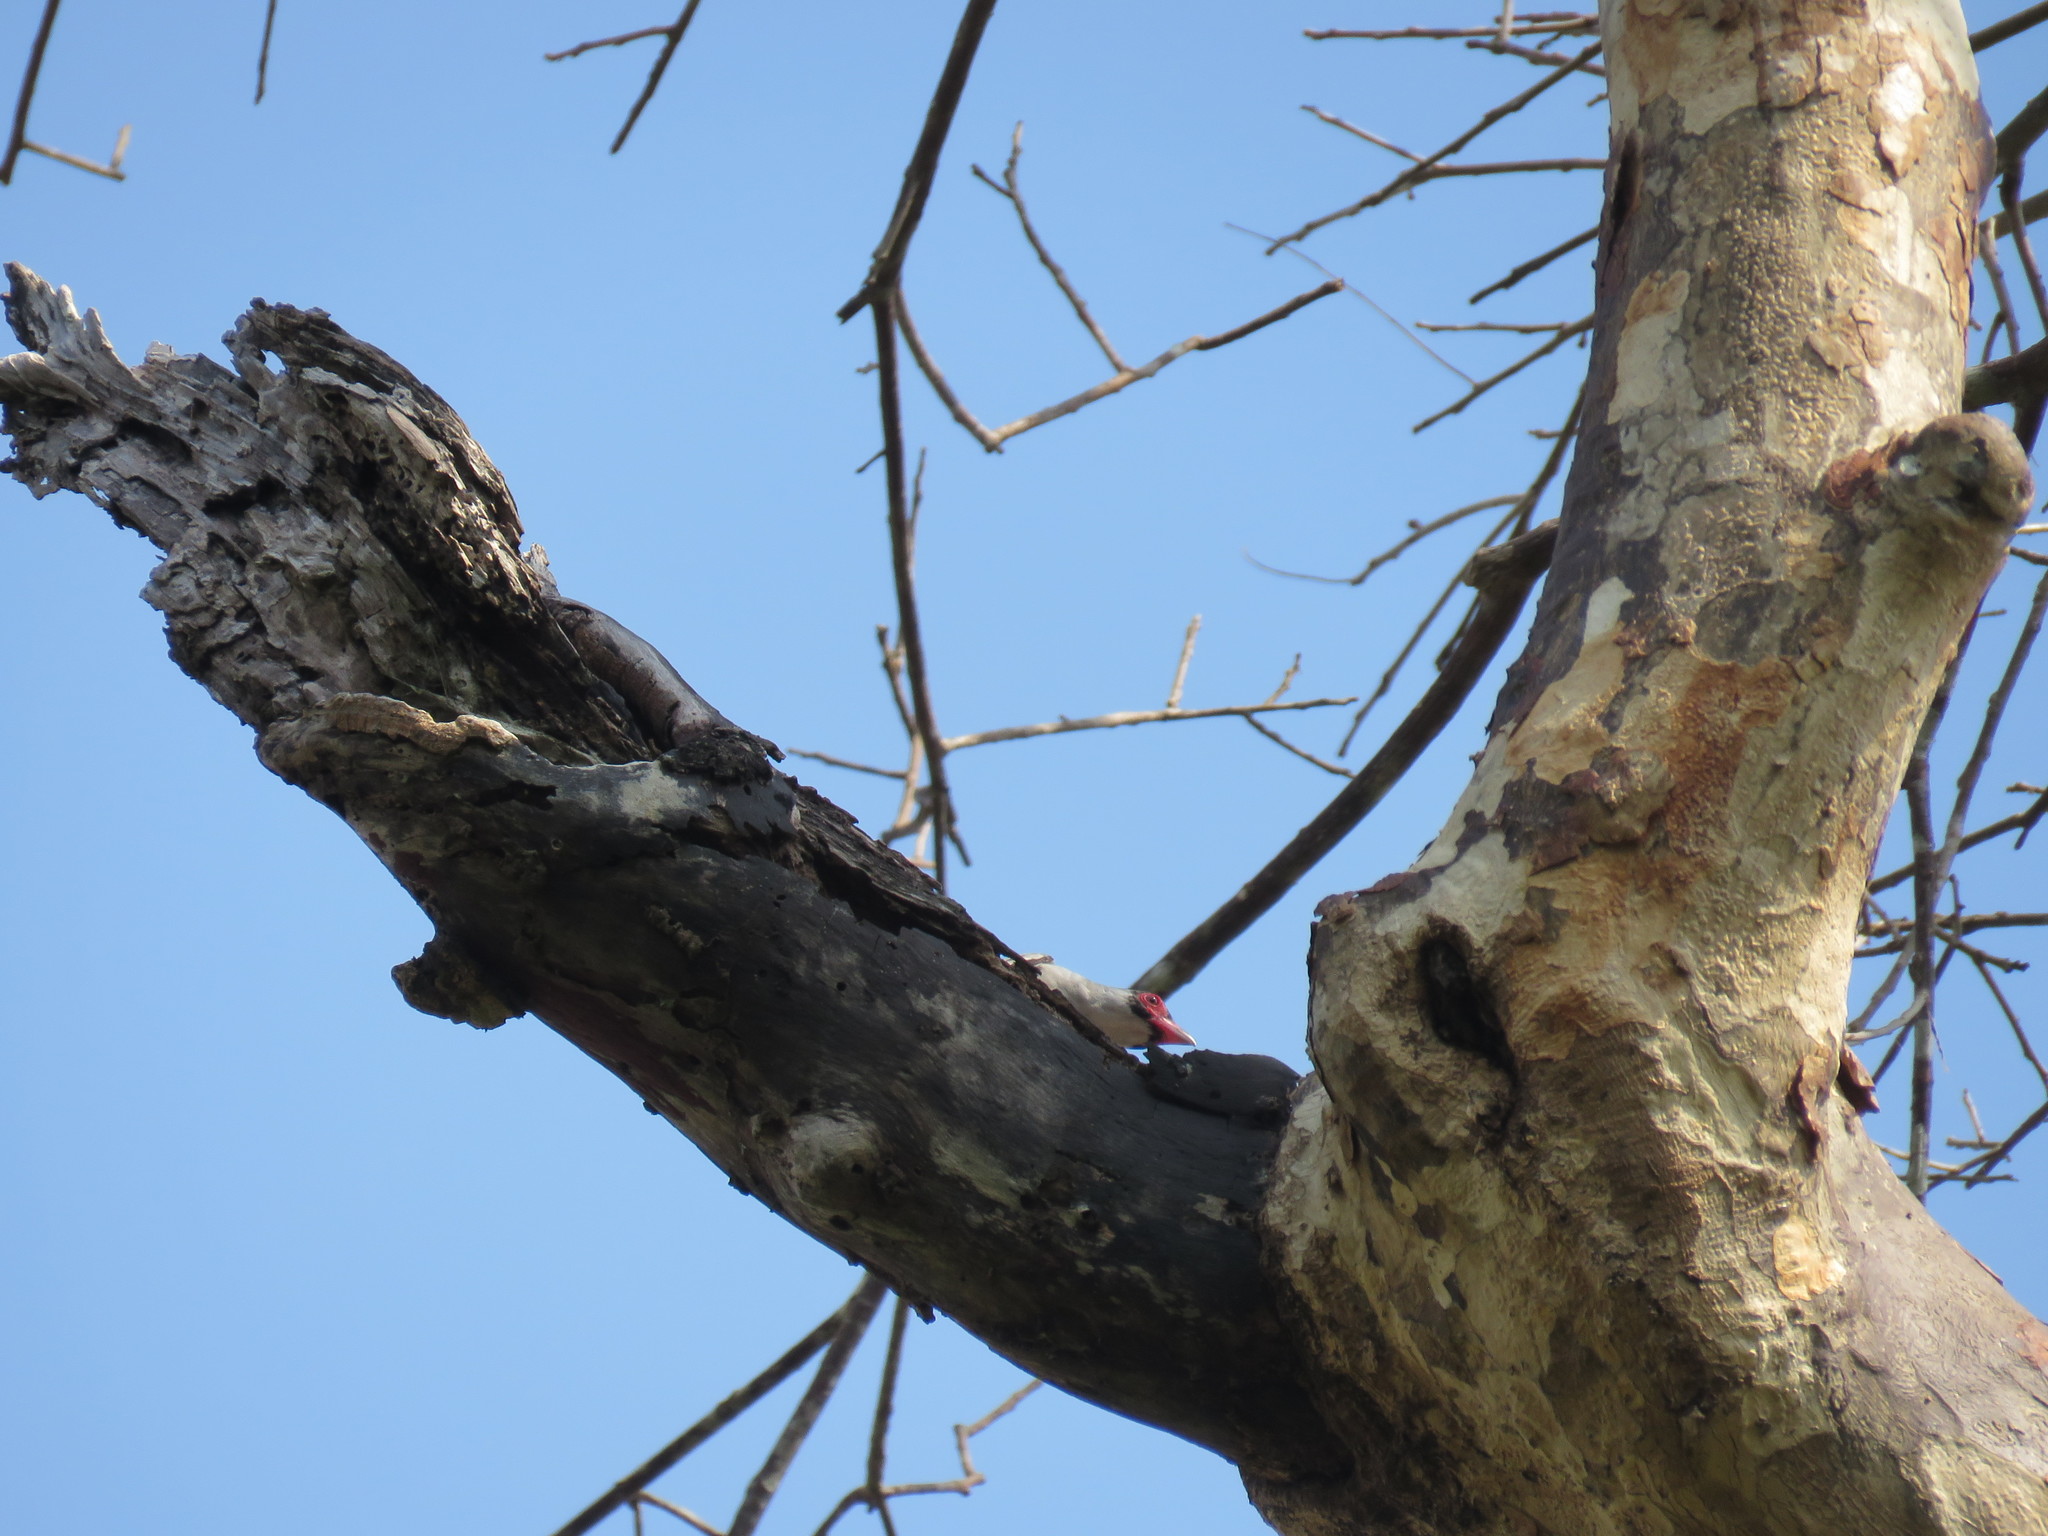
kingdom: Animalia
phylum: Chordata
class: Aves
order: Passeriformes
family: Cotingidae
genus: Tityra
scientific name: Tityra semifasciata
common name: Masked tityra
